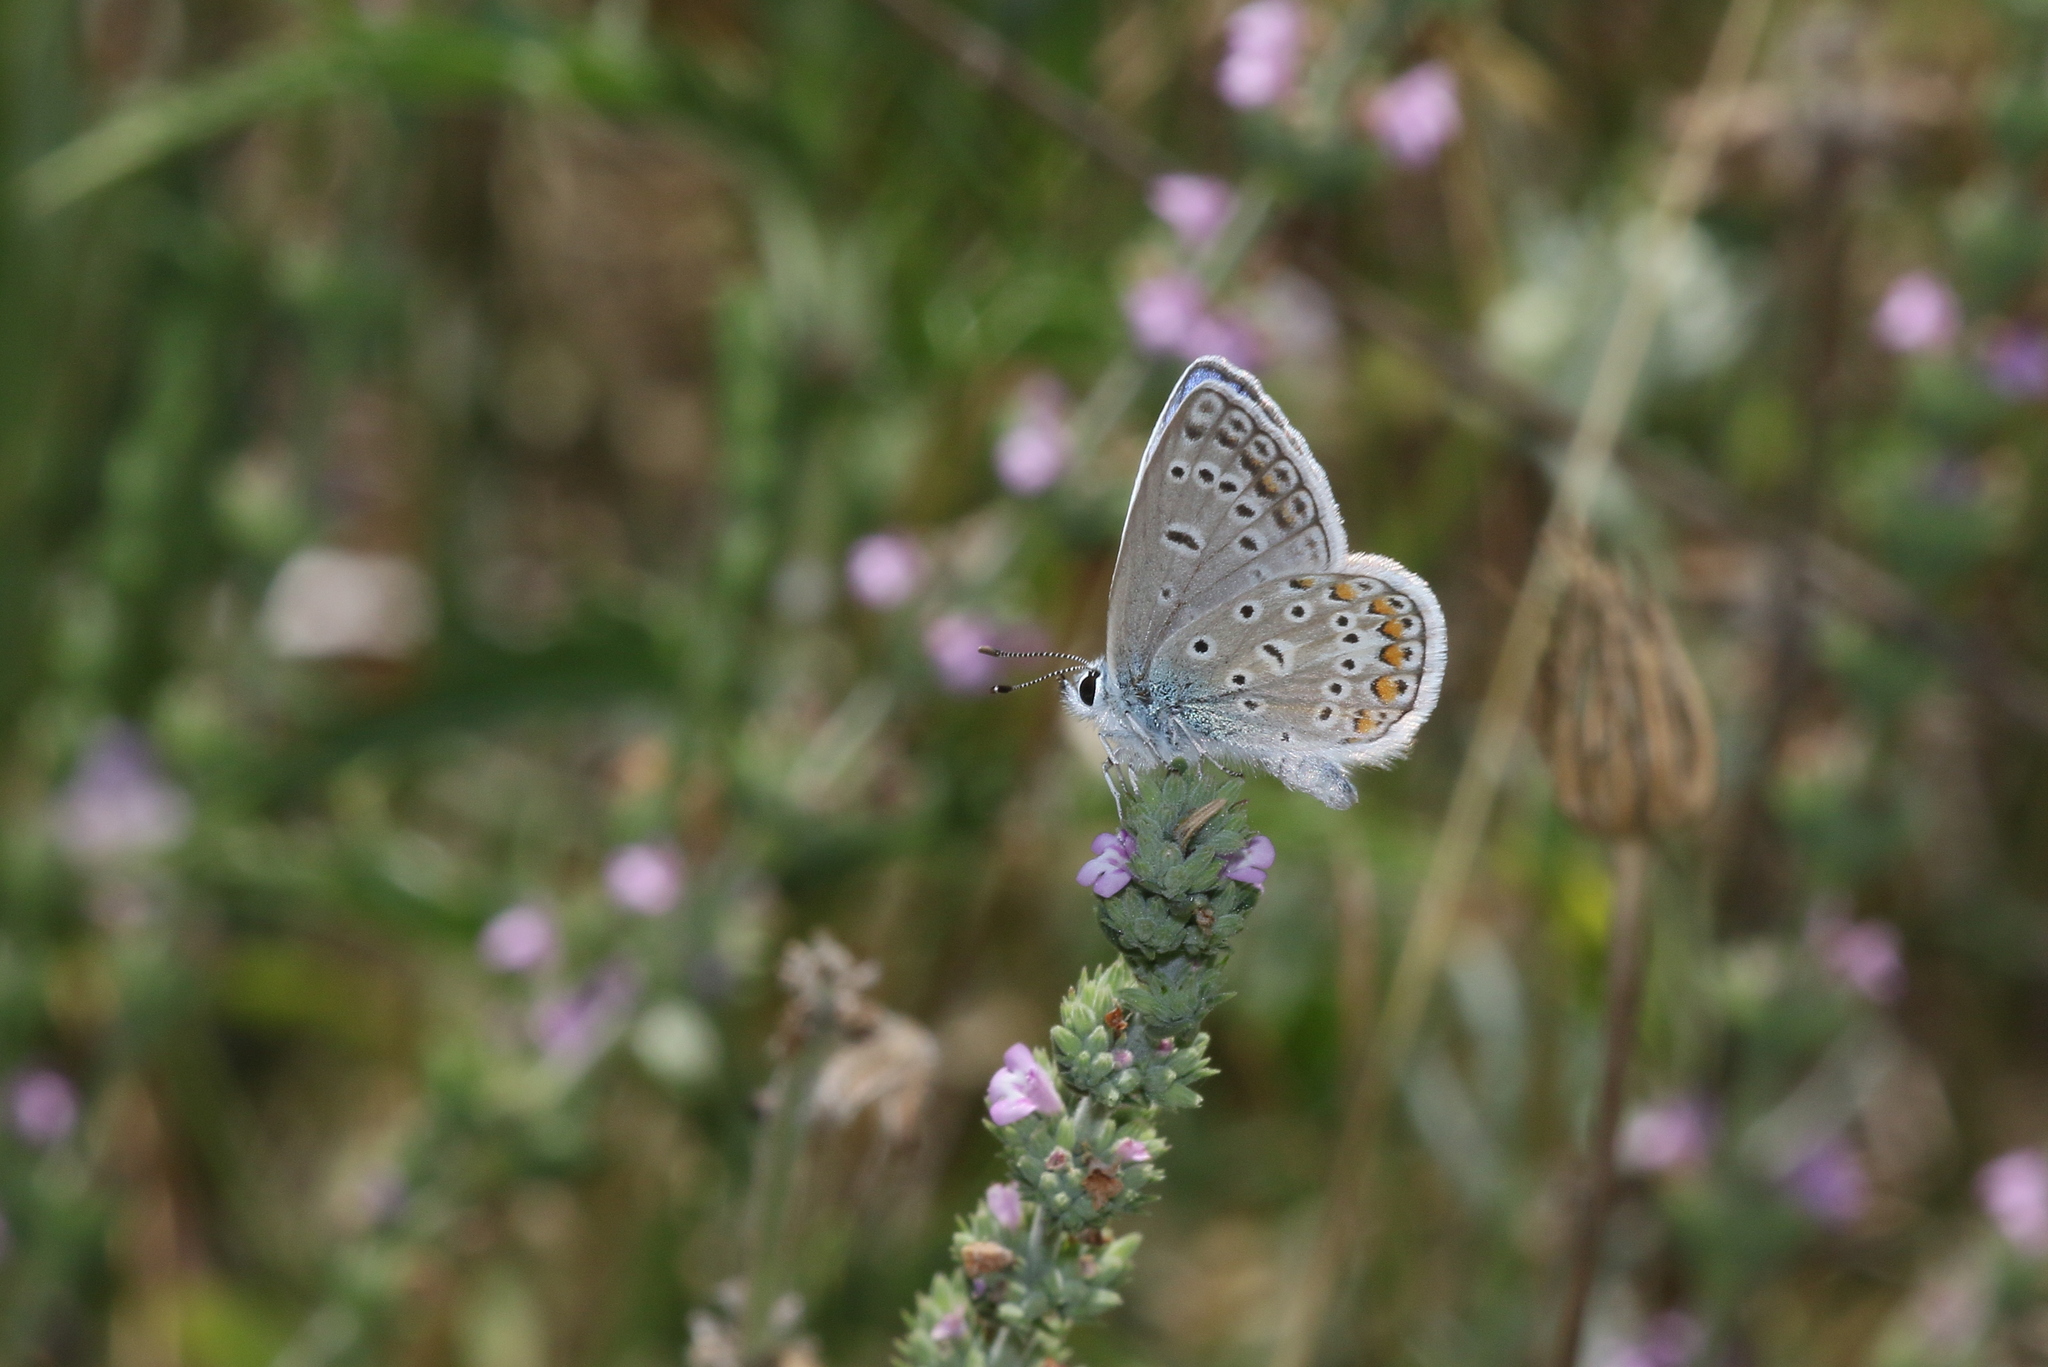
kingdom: Animalia
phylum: Arthropoda
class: Insecta
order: Lepidoptera
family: Lycaenidae
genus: Polyommatus
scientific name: Polyommatus icarus
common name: Common blue
